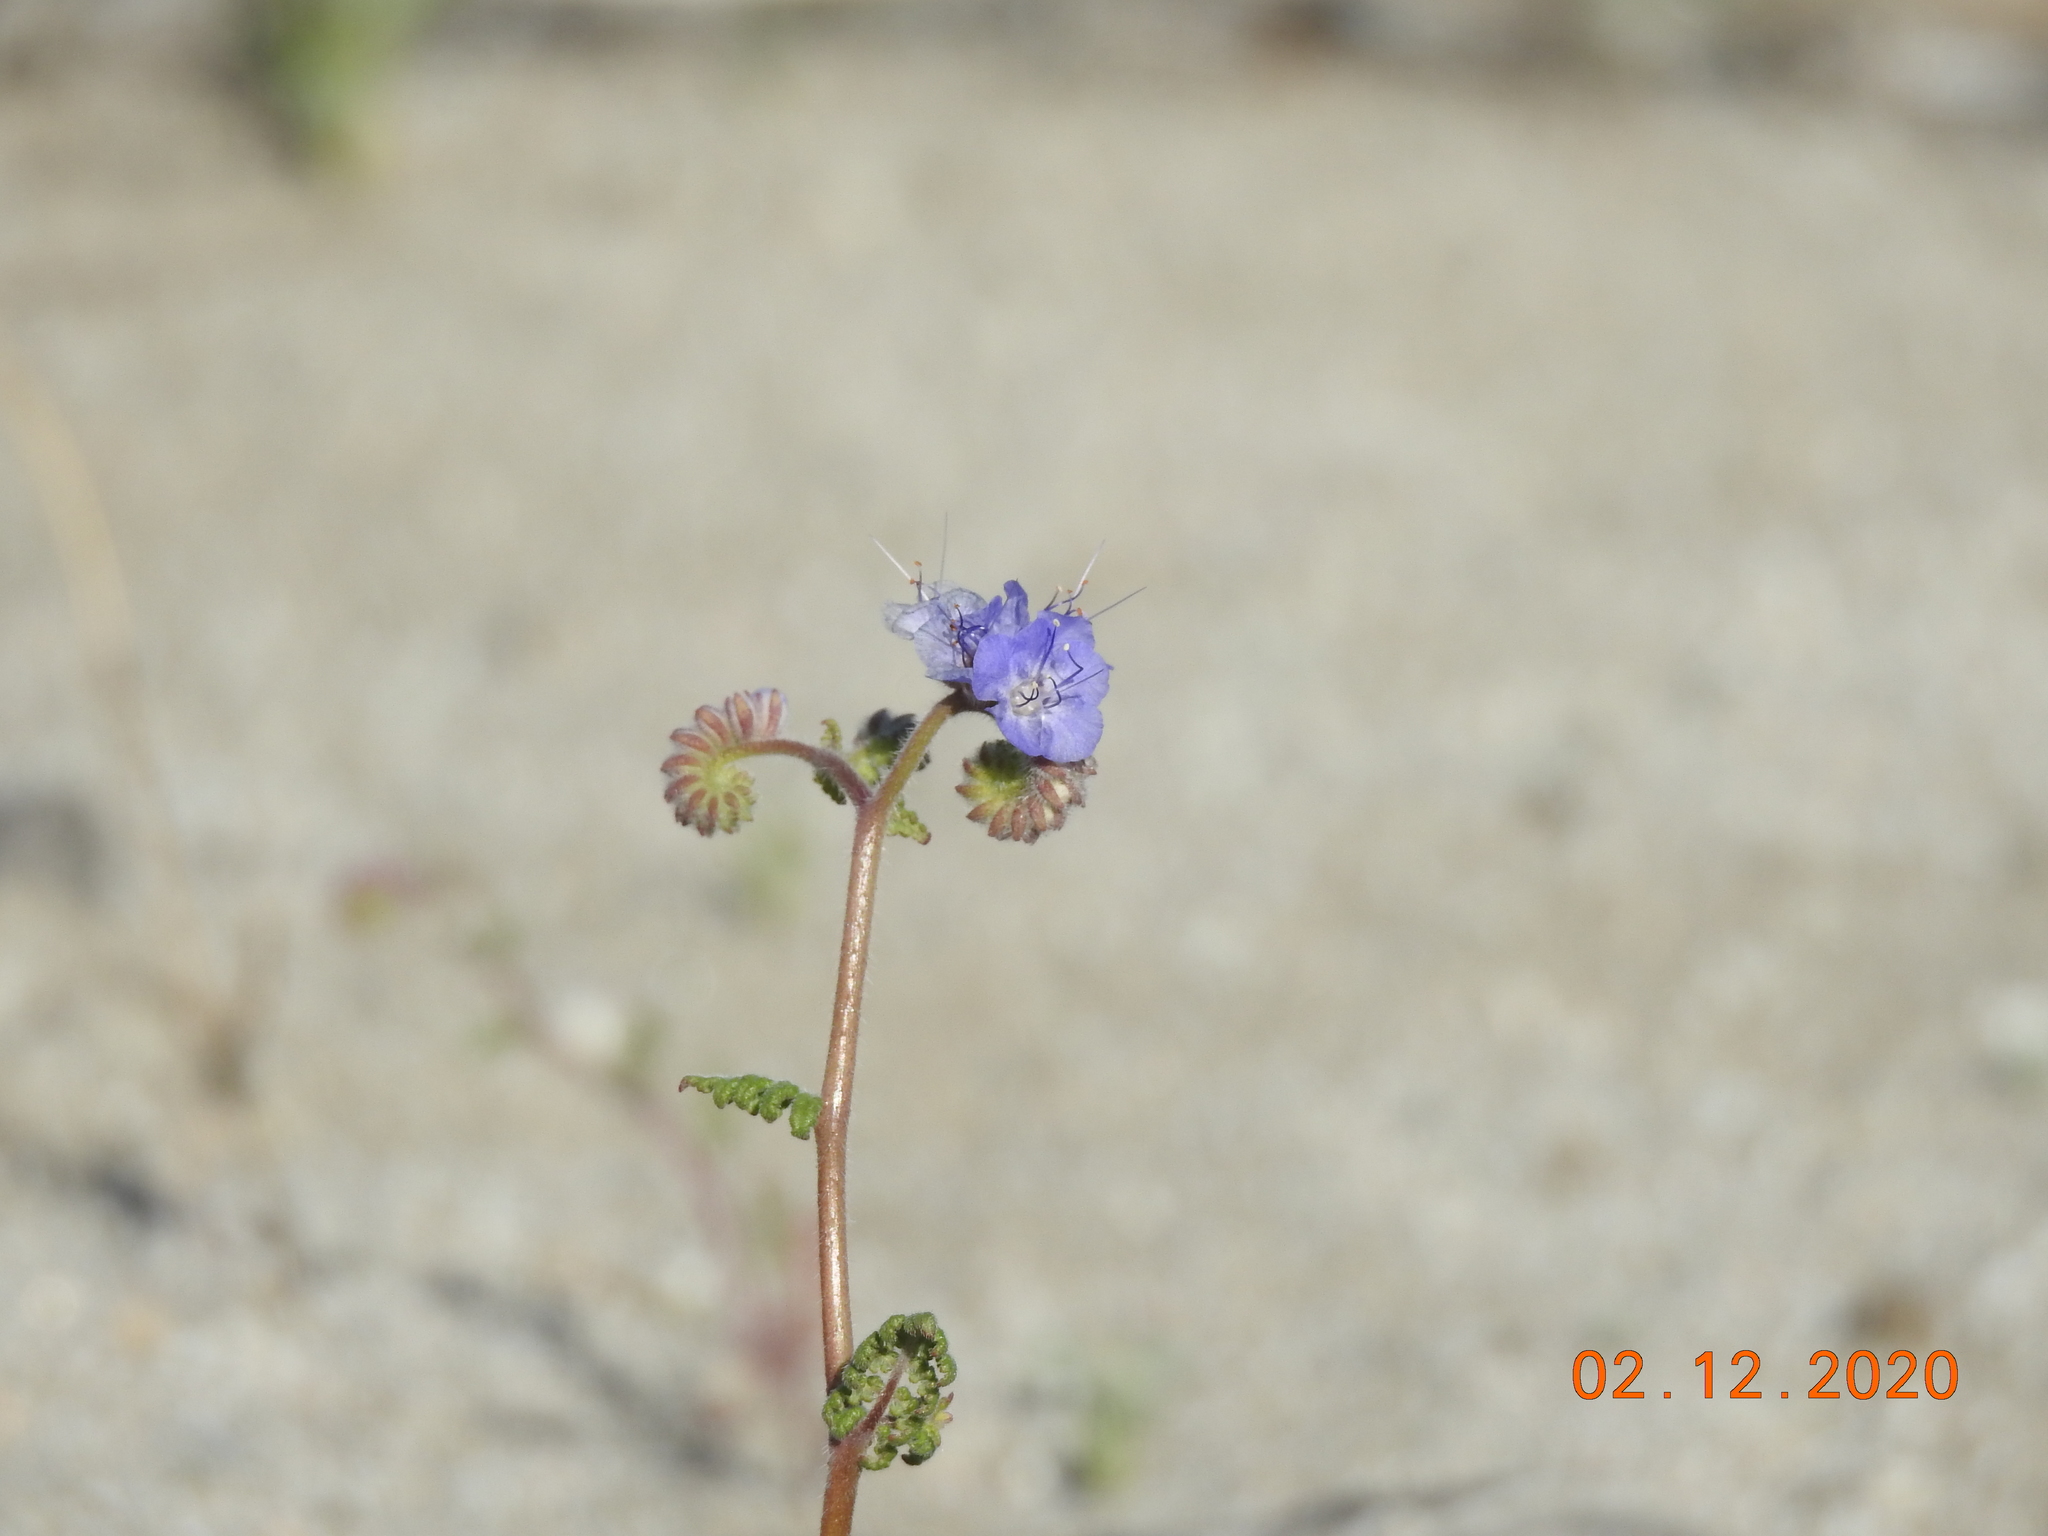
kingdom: Plantae
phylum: Tracheophyta
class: Magnoliopsida
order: Boraginales
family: Hydrophyllaceae
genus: Phacelia
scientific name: Phacelia distans
